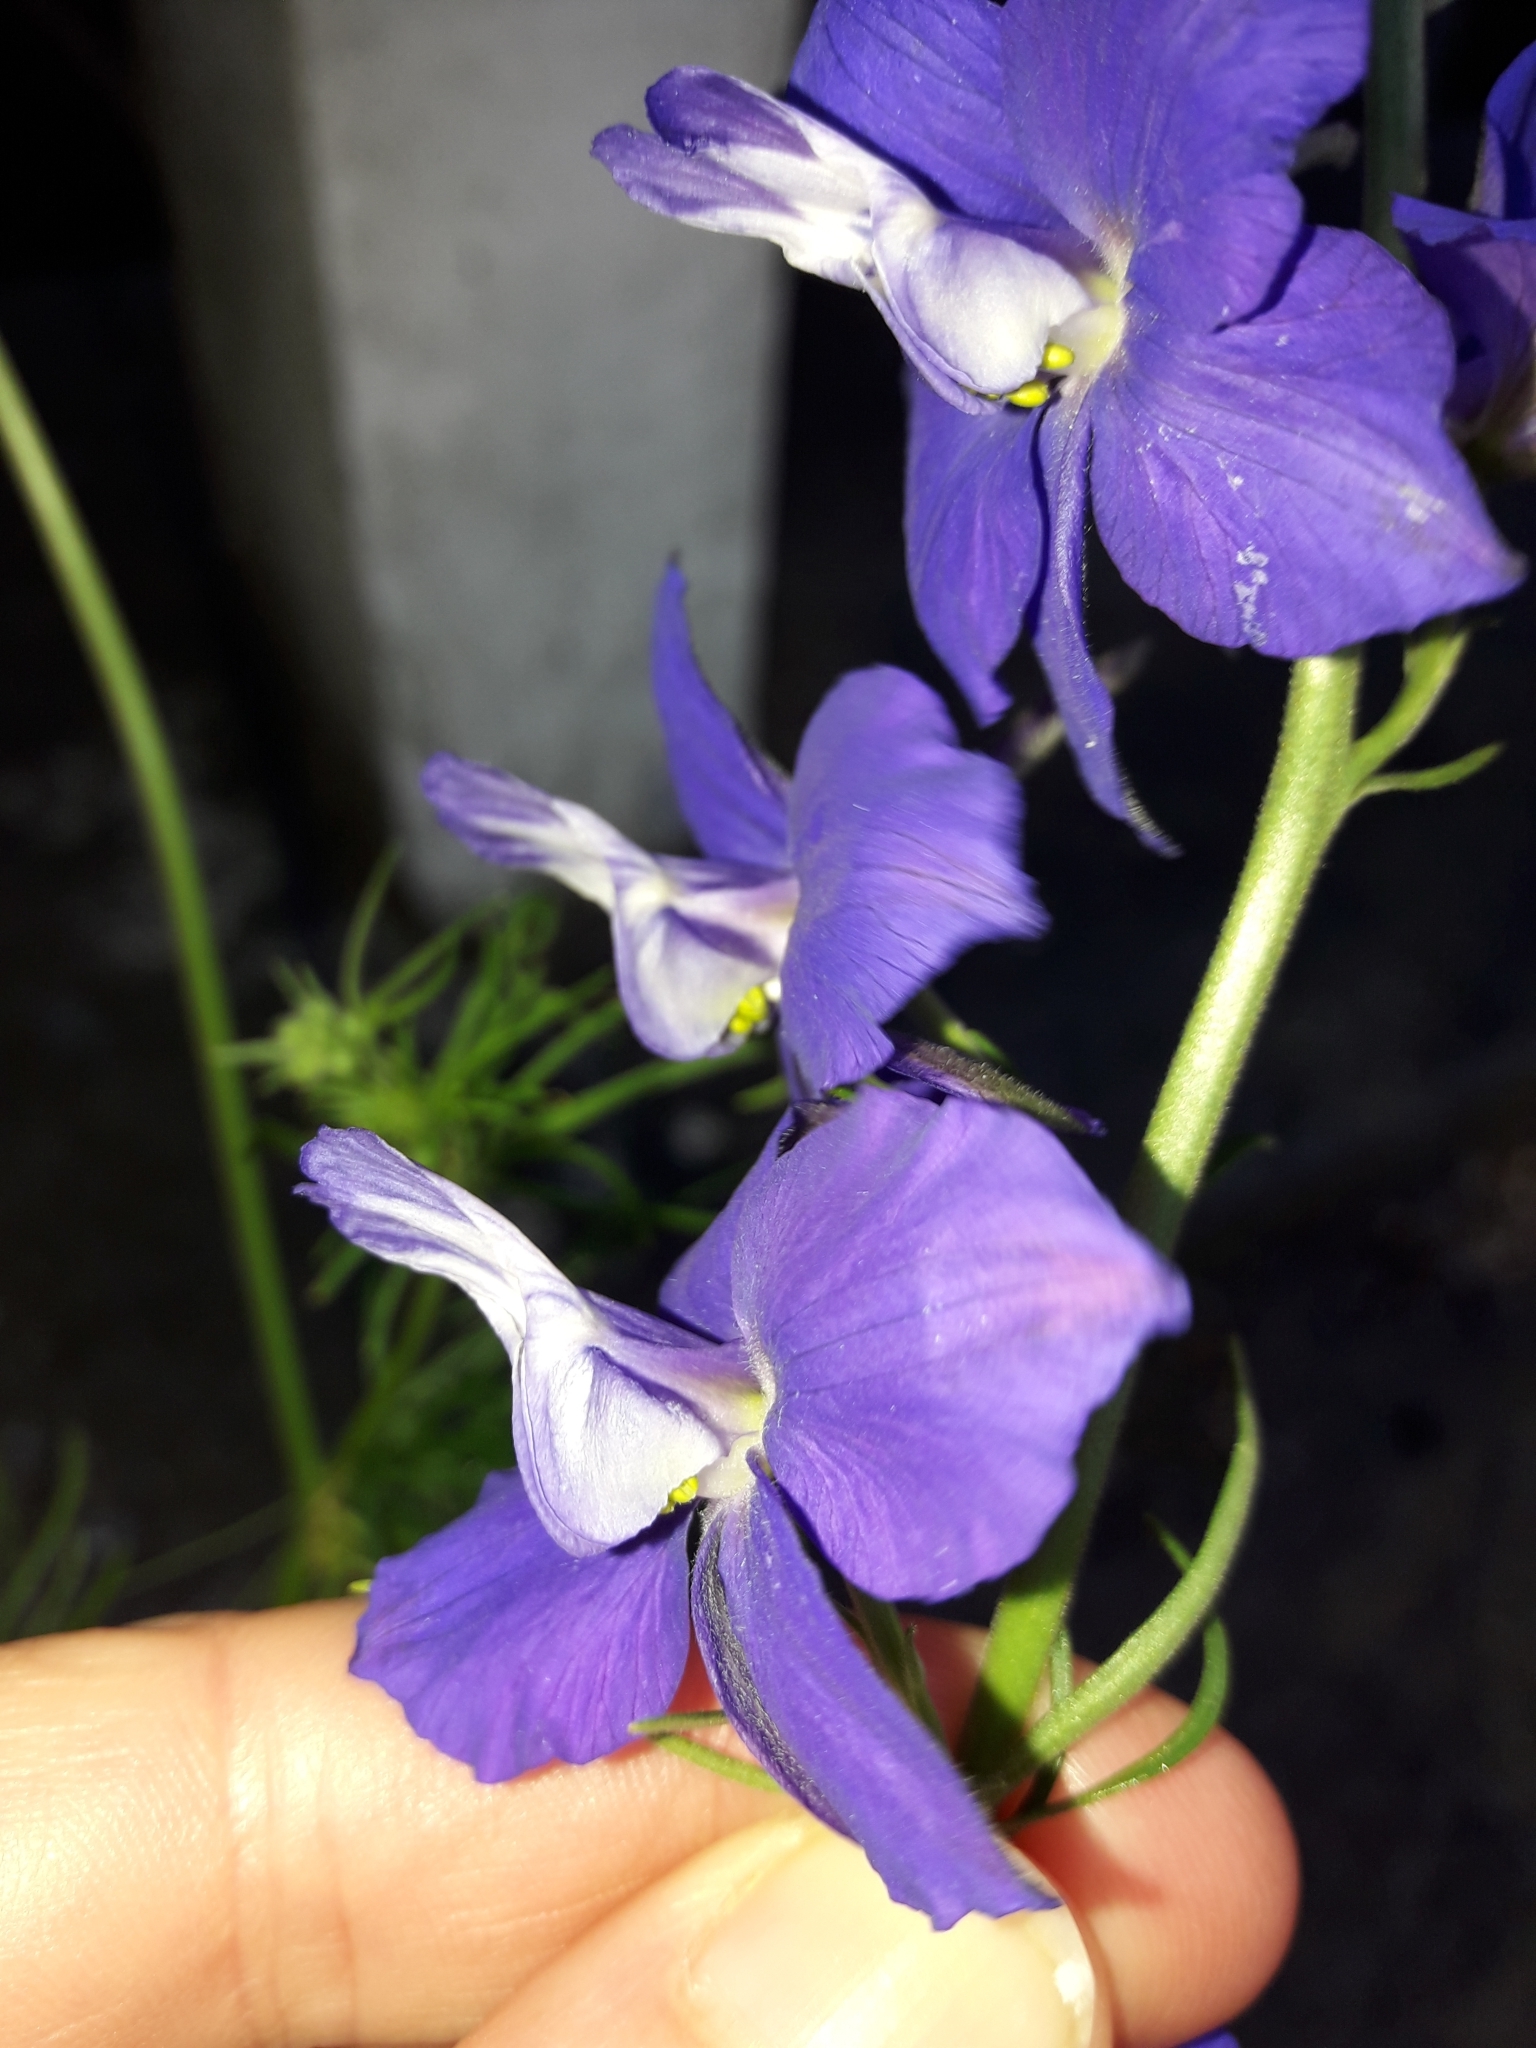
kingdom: Plantae
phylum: Tracheophyta
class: Magnoliopsida
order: Ranunculales
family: Ranunculaceae
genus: Delphinium
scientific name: Delphinium ajacis
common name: Doubtful knight's-spur
